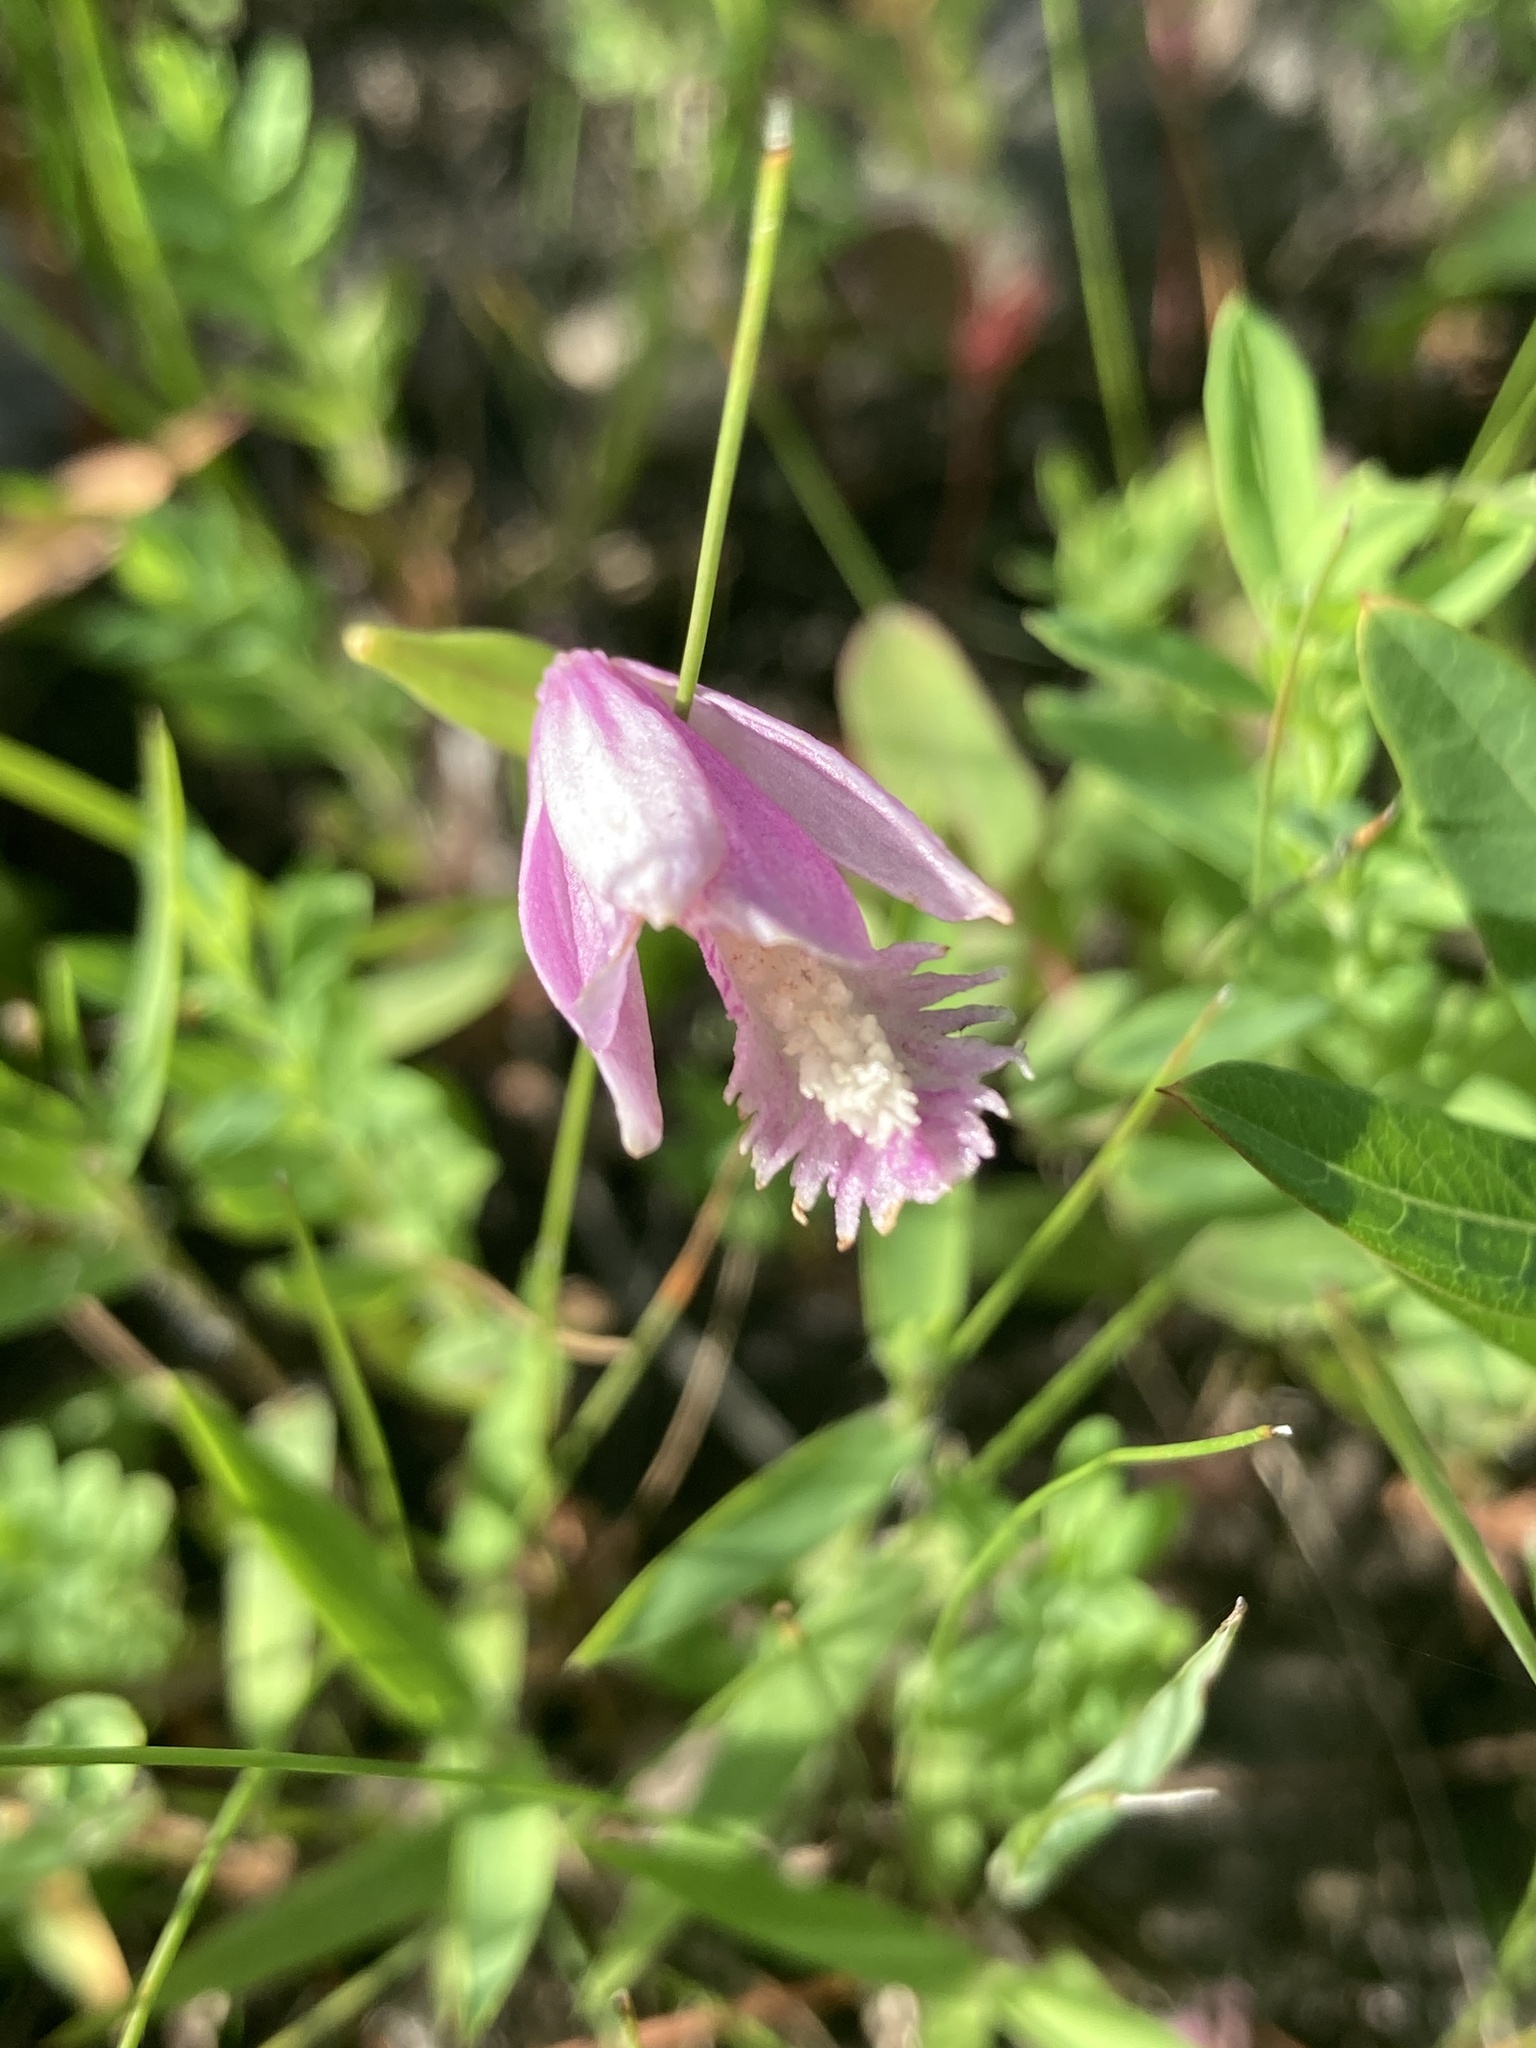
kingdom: Plantae
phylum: Tracheophyta
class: Liliopsida
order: Asparagales
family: Orchidaceae
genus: Pogonia
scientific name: Pogonia ophioglossoides
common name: Rose pogonia
